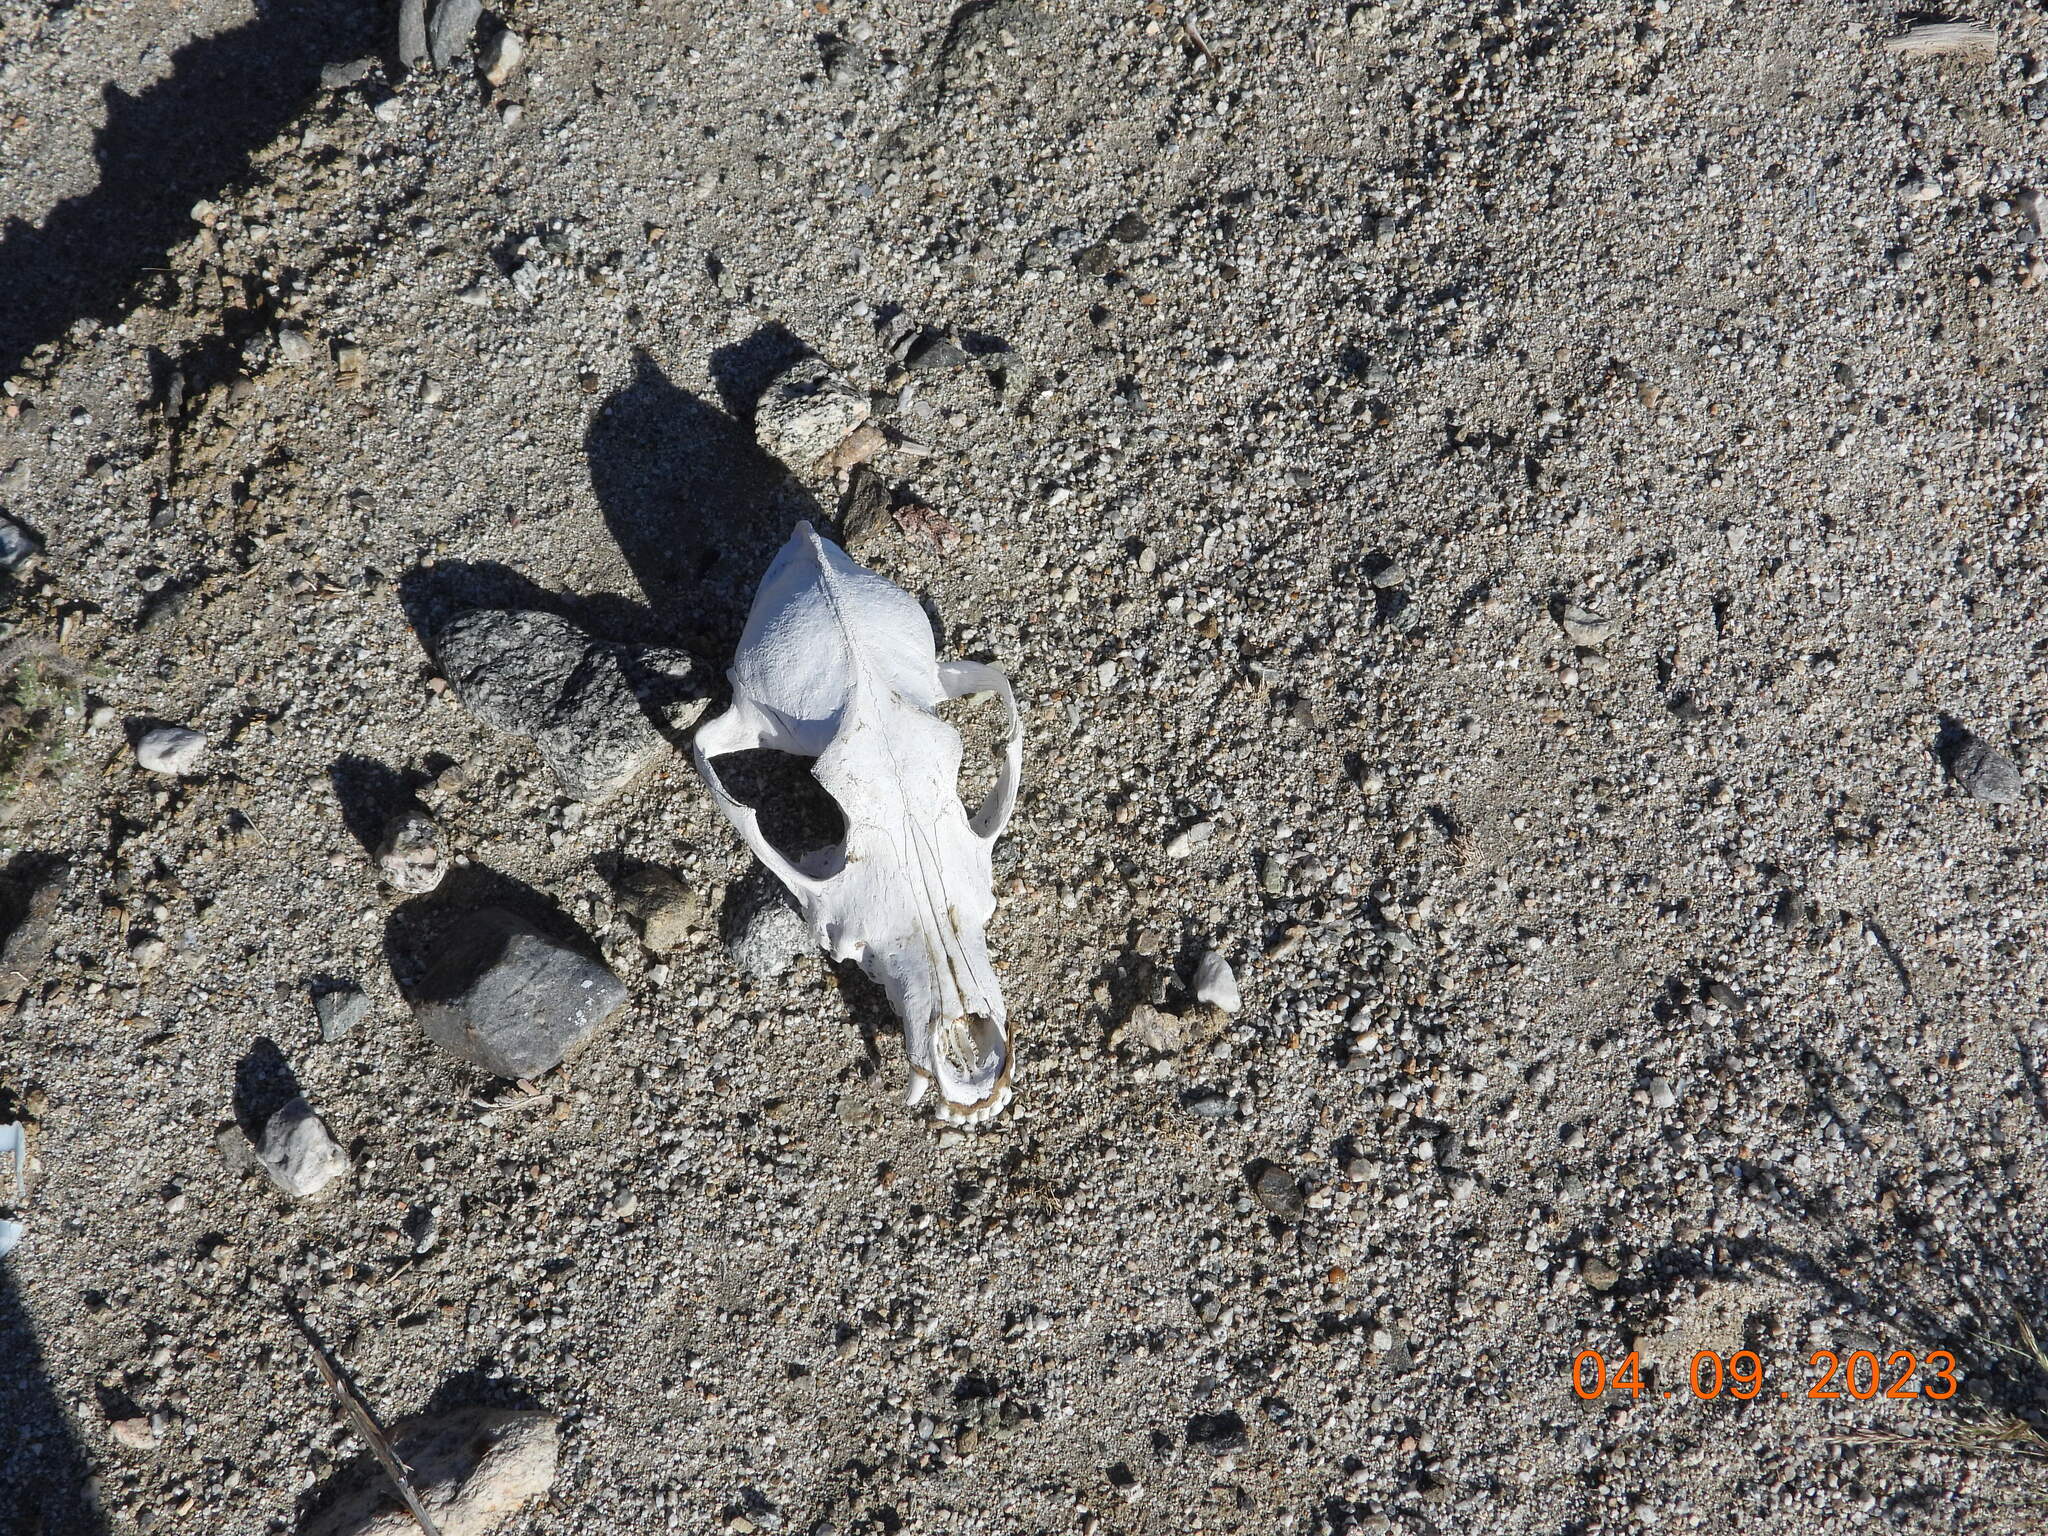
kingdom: Animalia
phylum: Chordata
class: Mammalia
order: Carnivora
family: Canidae
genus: Canis
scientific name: Canis latrans
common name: Coyote
